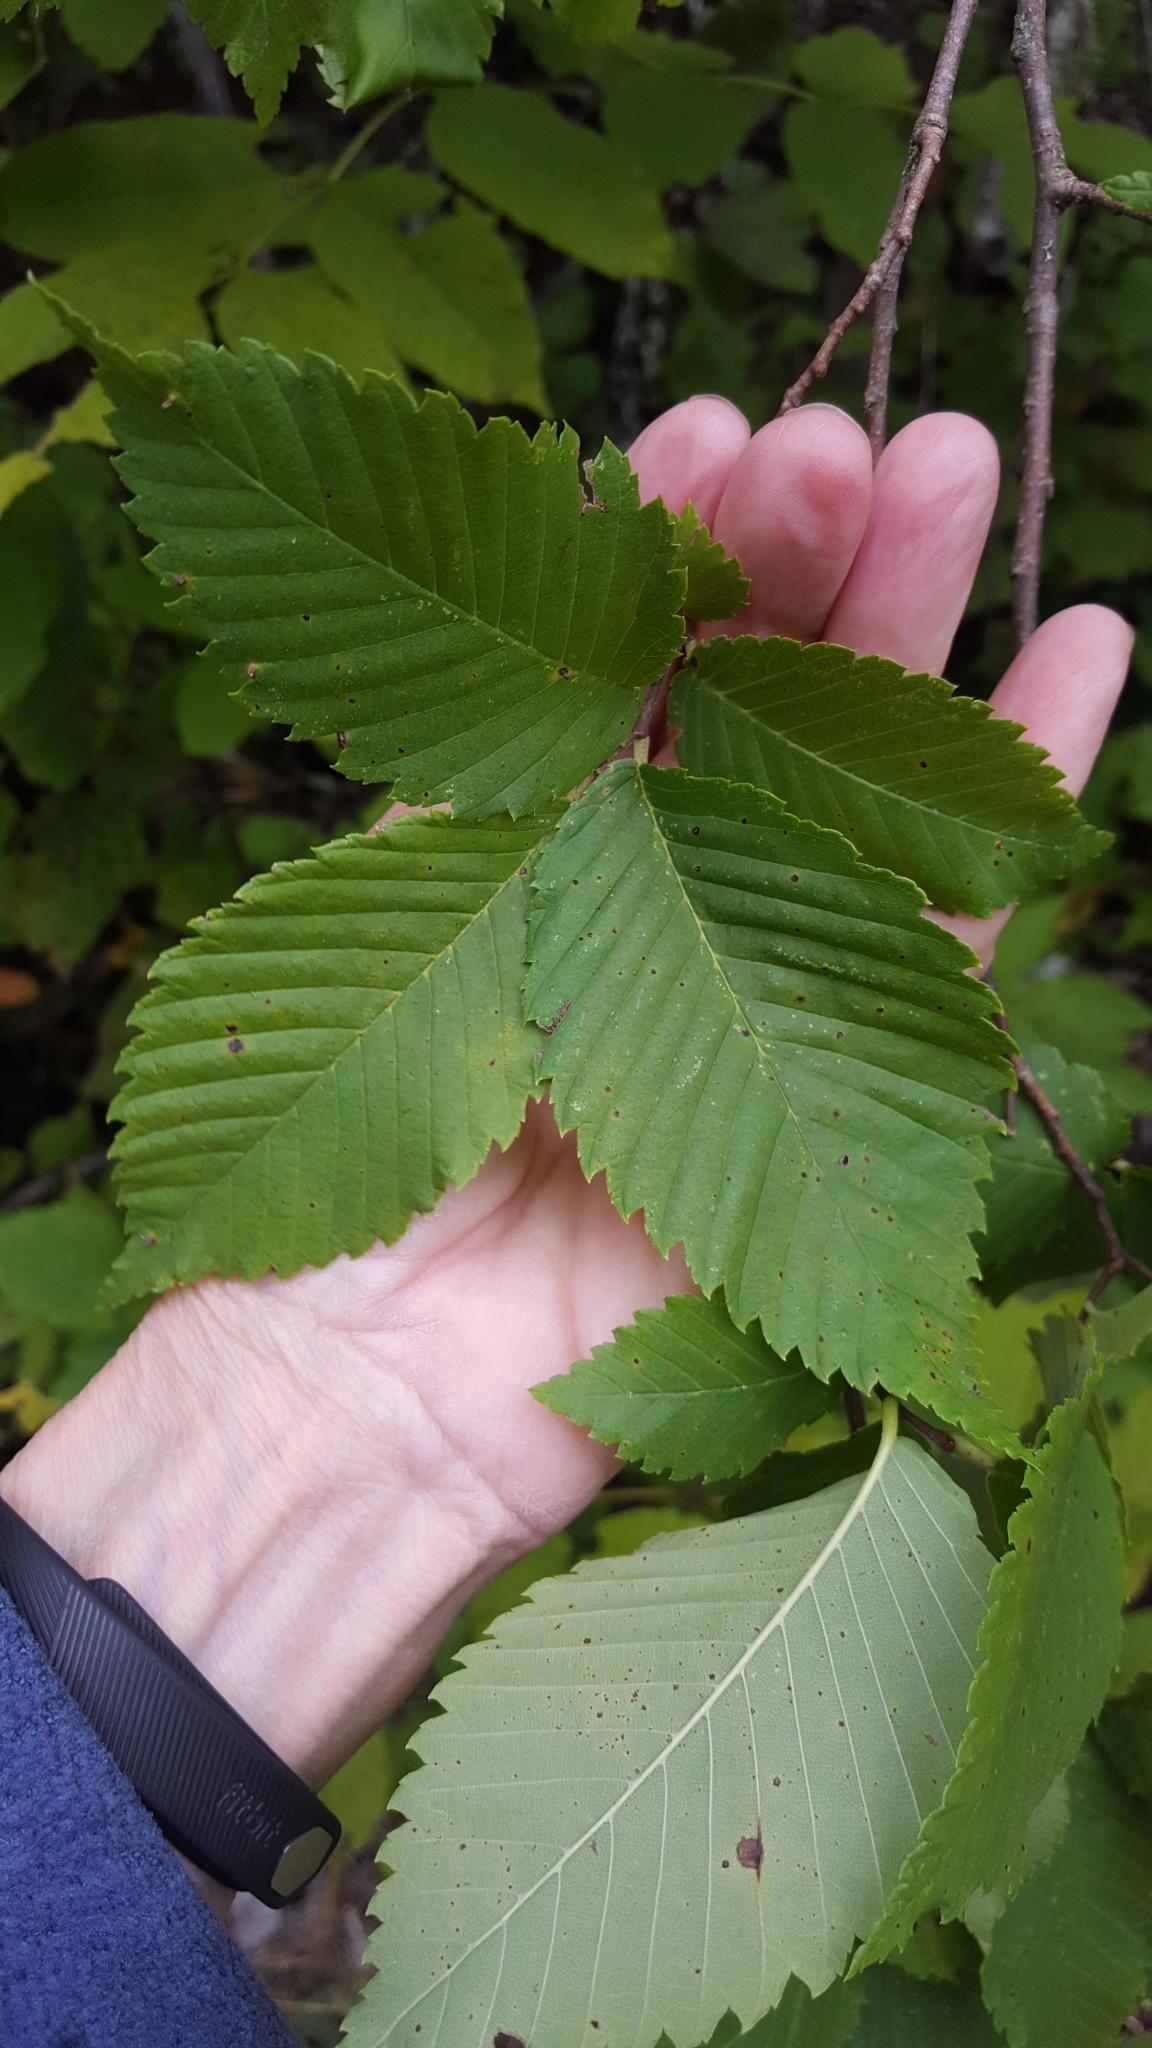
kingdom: Plantae
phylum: Tracheophyta
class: Magnoliopsida
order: Rosales
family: Ulmaceae
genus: Ulmus
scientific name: Ulmus americana
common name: American elm
